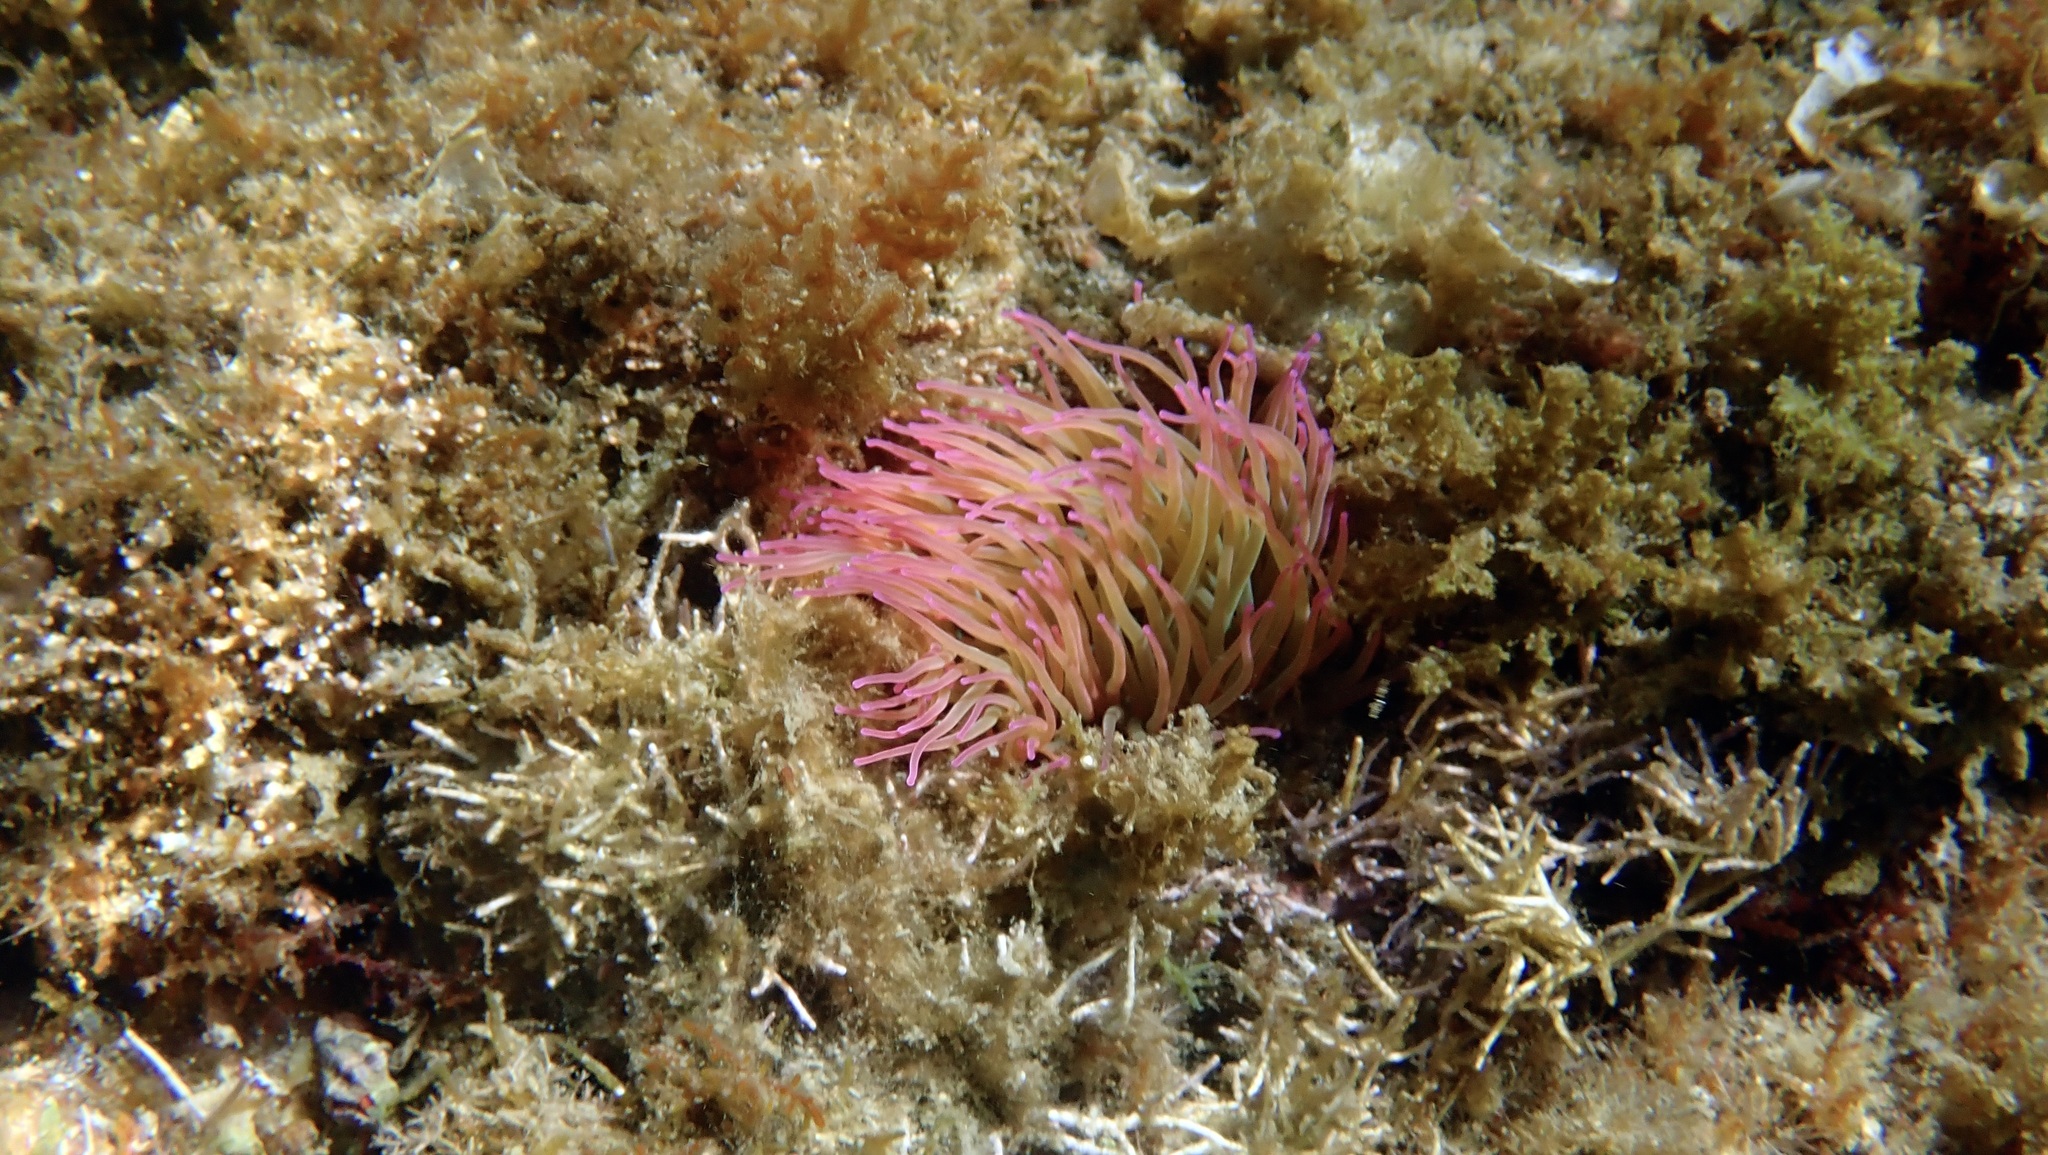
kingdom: Animalia
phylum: Cnidaria
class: Anthozoa
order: Actiniaria
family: Actiniidae
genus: Anemonia
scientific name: Anemonia viridis
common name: Snakelocks anemone
